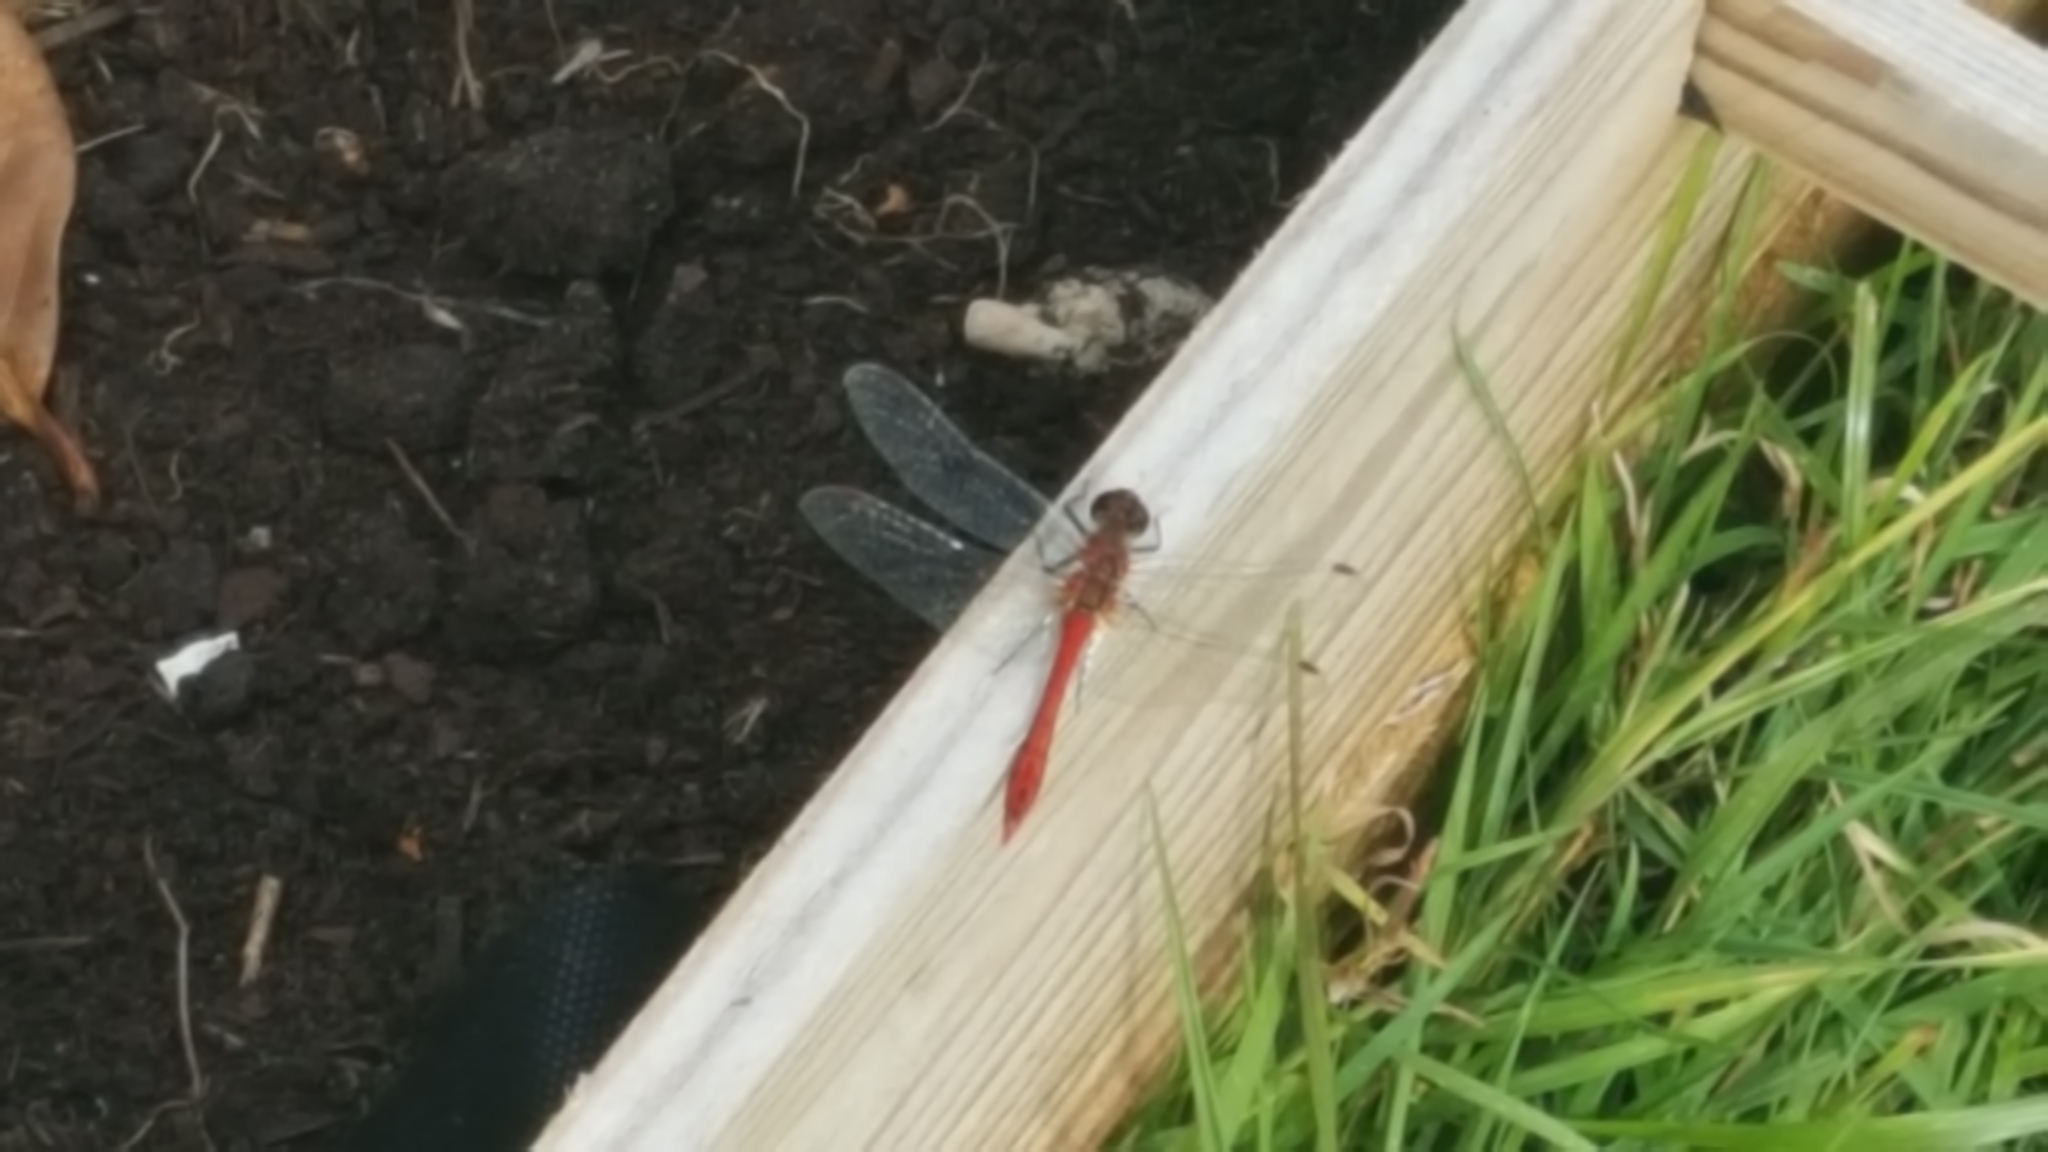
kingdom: Animalia
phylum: Arthropoda
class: Insecta
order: Odonata
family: Libellulidae
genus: Sympetrum
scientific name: Sympetrum sanguineum
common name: Ruddy darter
